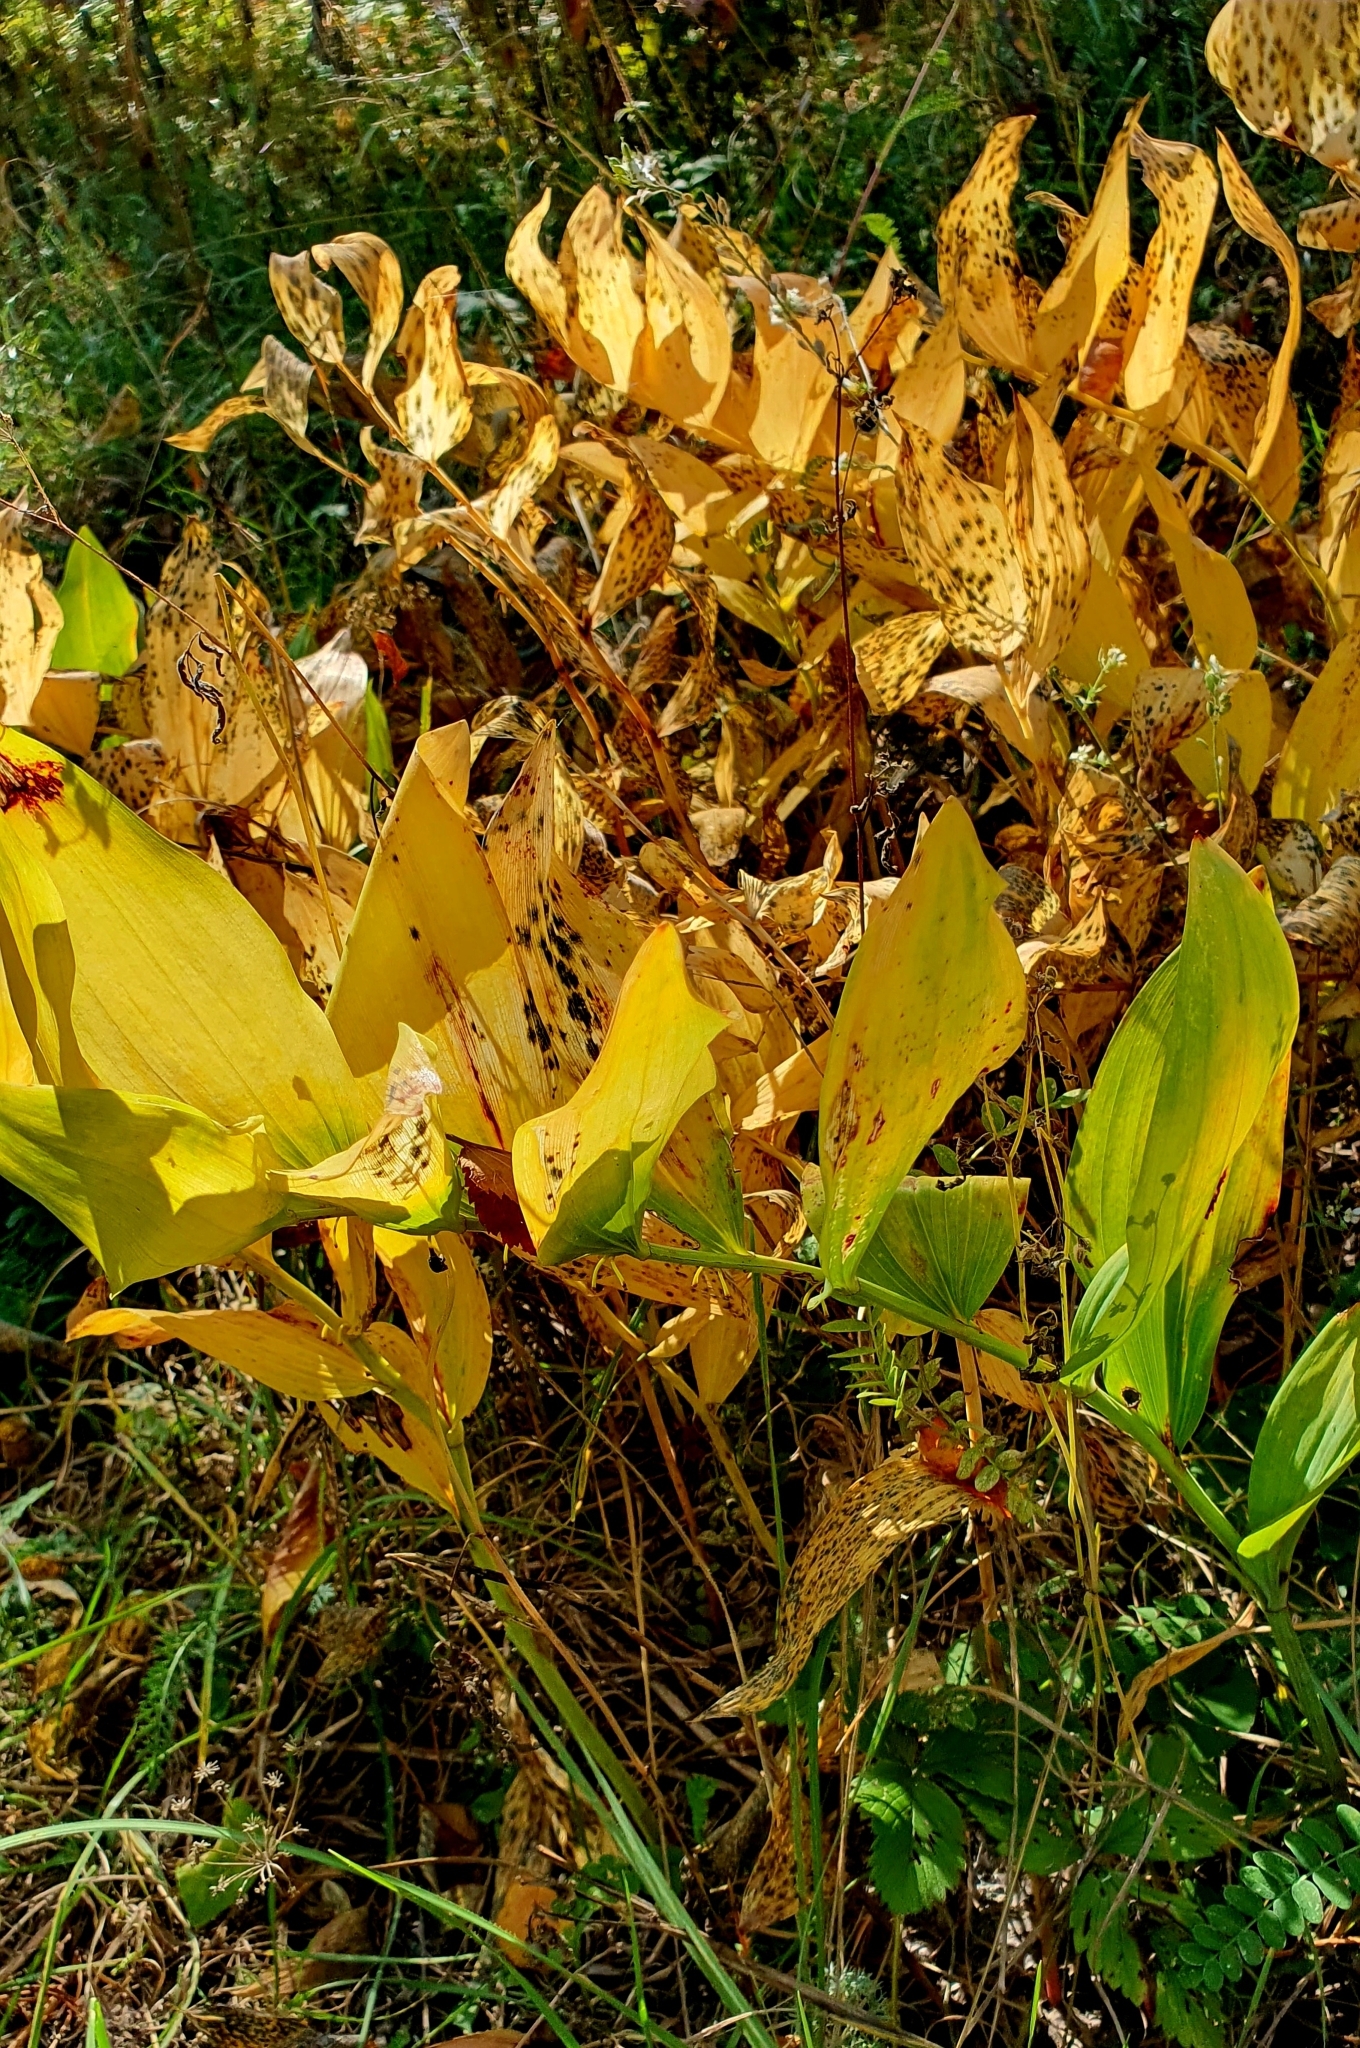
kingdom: Plantae
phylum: Tracheophyta
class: Liliopsida
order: Asparagales
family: Asparagaceae
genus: Polygonatum
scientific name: Polygonatum multiflorum
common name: Solomon's-seal
